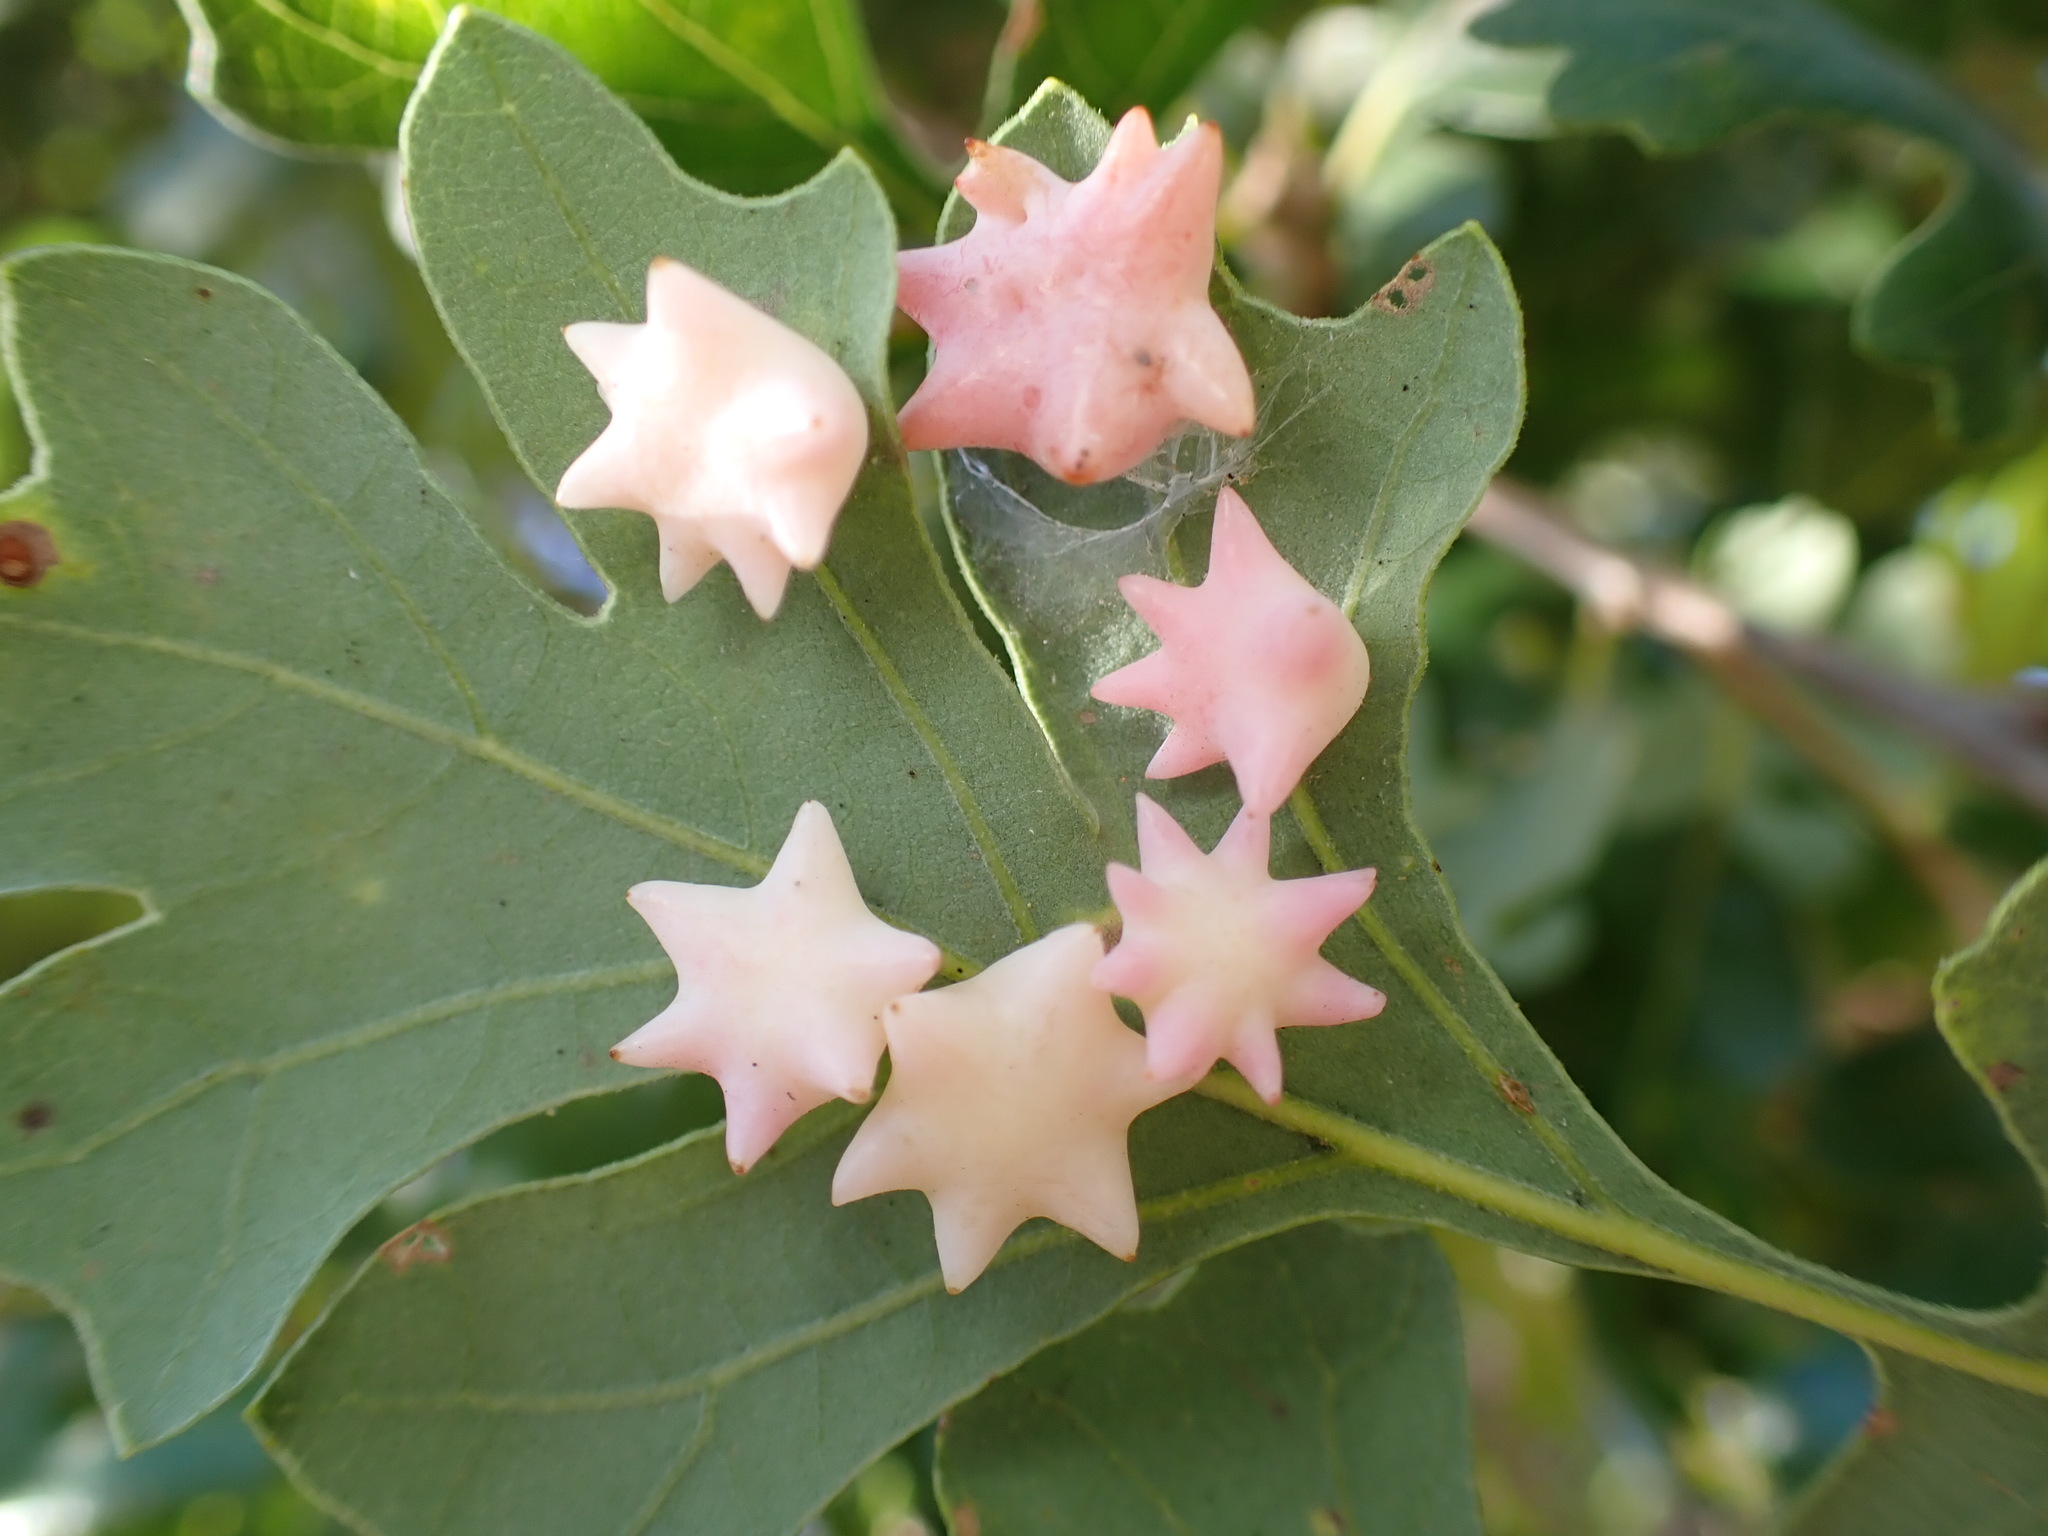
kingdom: Animalia
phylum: Arthropoda
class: Insecta
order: Hymenoptera
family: Cynipidae
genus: Cynips
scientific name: Cynips douglasi
